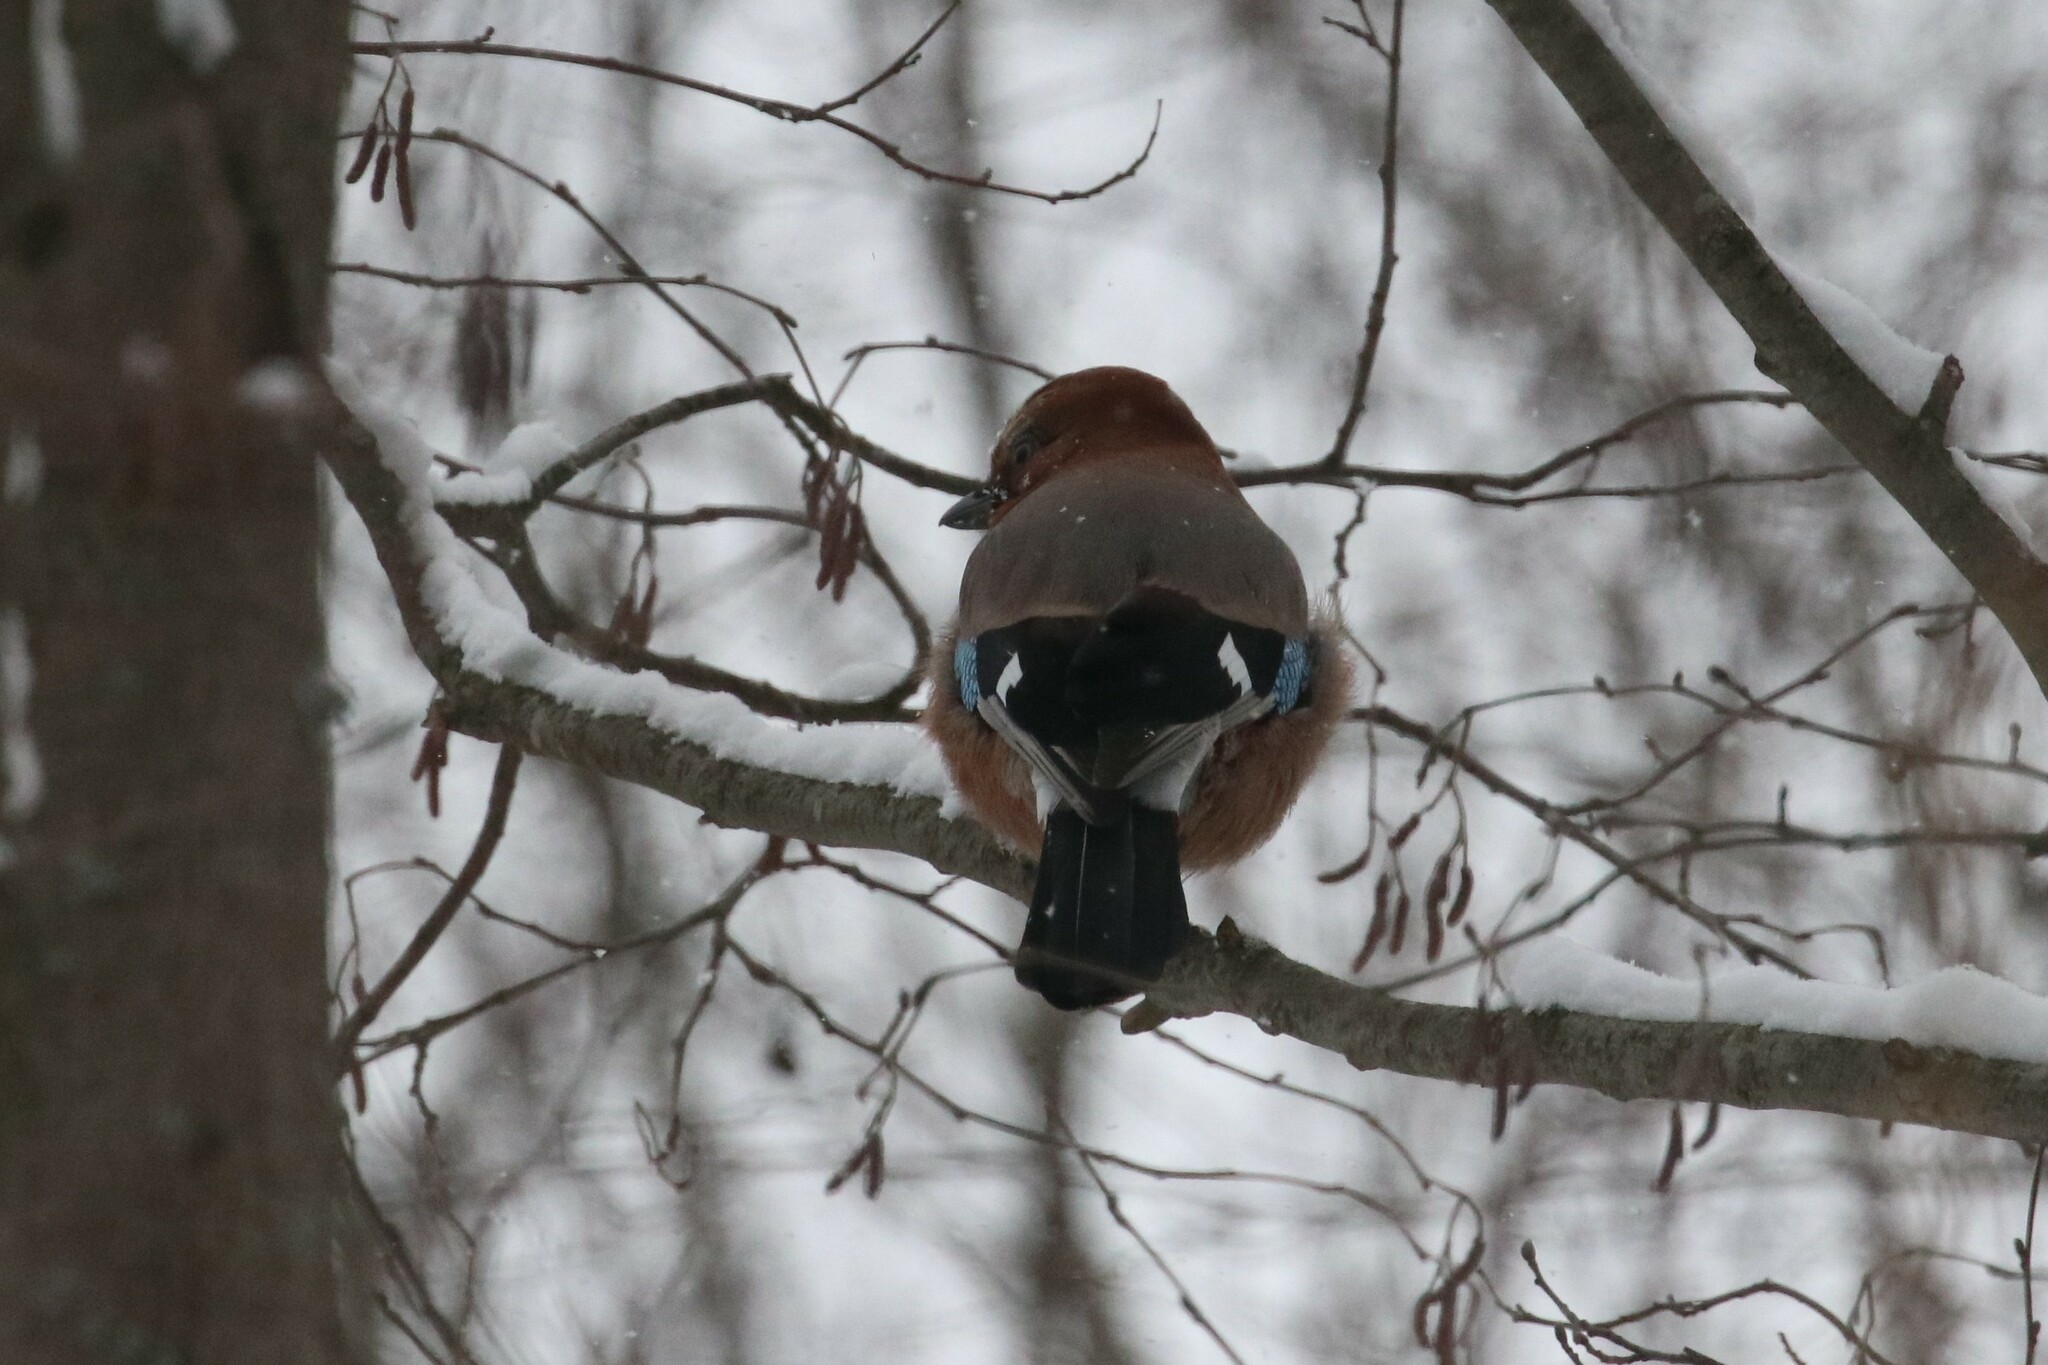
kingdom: Animalia
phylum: Chordata
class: Aves
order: Passeriformes
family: Corvidae
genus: Garrulus
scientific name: Garrulus glandarius
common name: Eurasian jay
